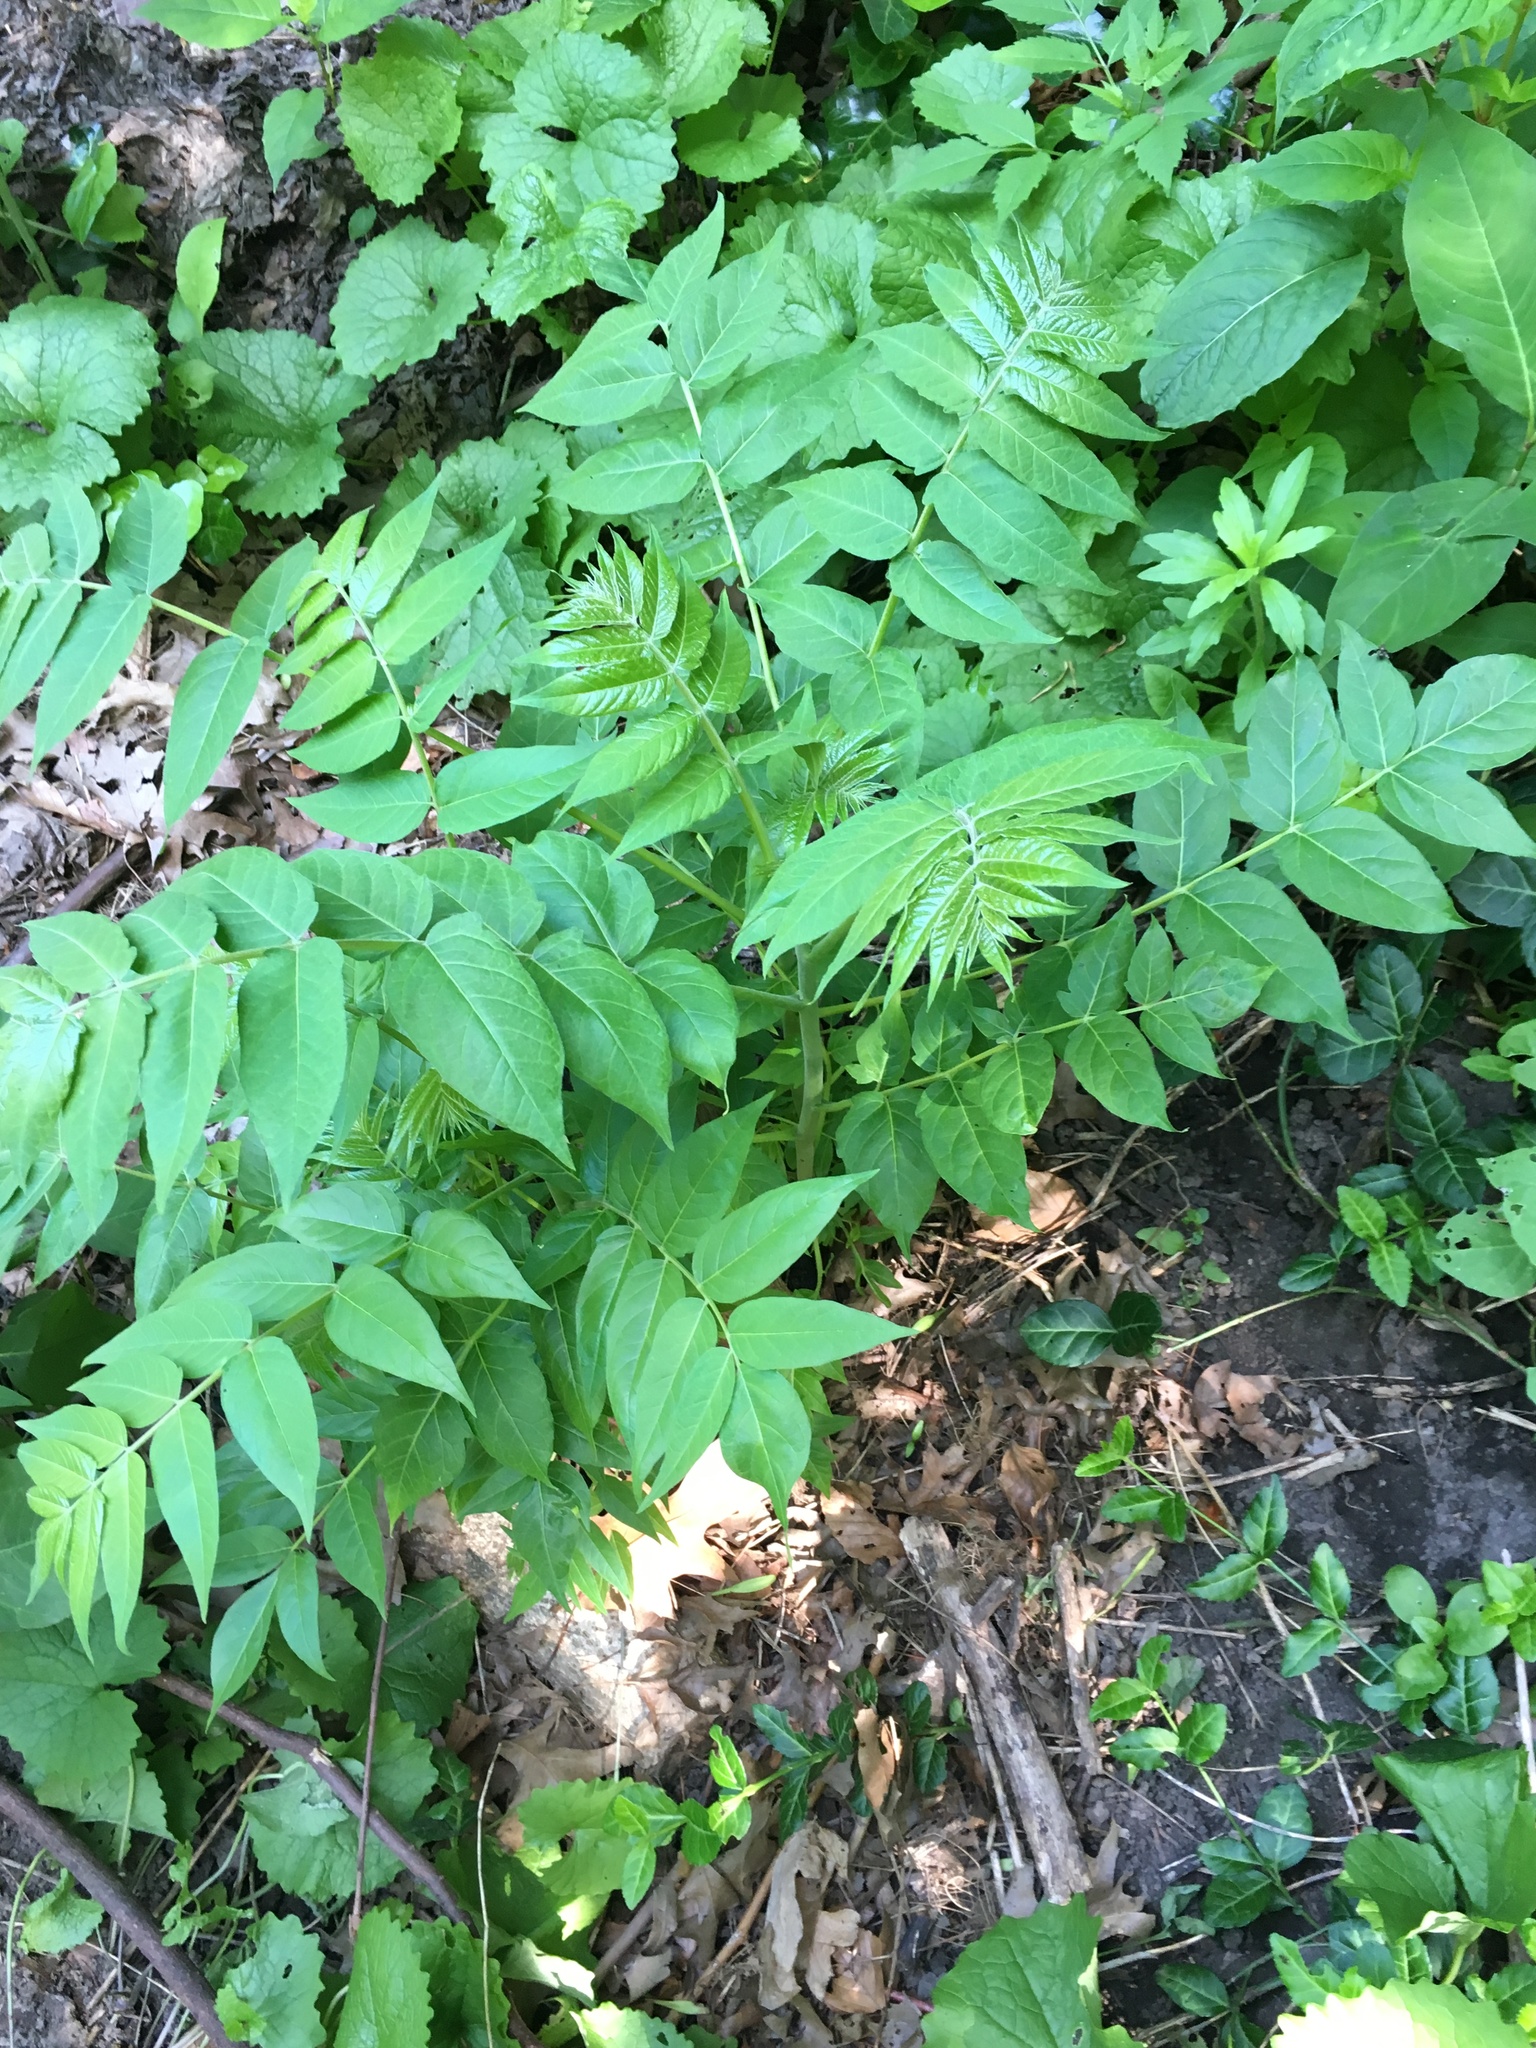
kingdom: Plantae
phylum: Tracheophyta
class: Magnoliopsida
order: Sapindales
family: Simaroubaceae
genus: Ailanthus
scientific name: Ailanthus altissima
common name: Tree-of-heaven
